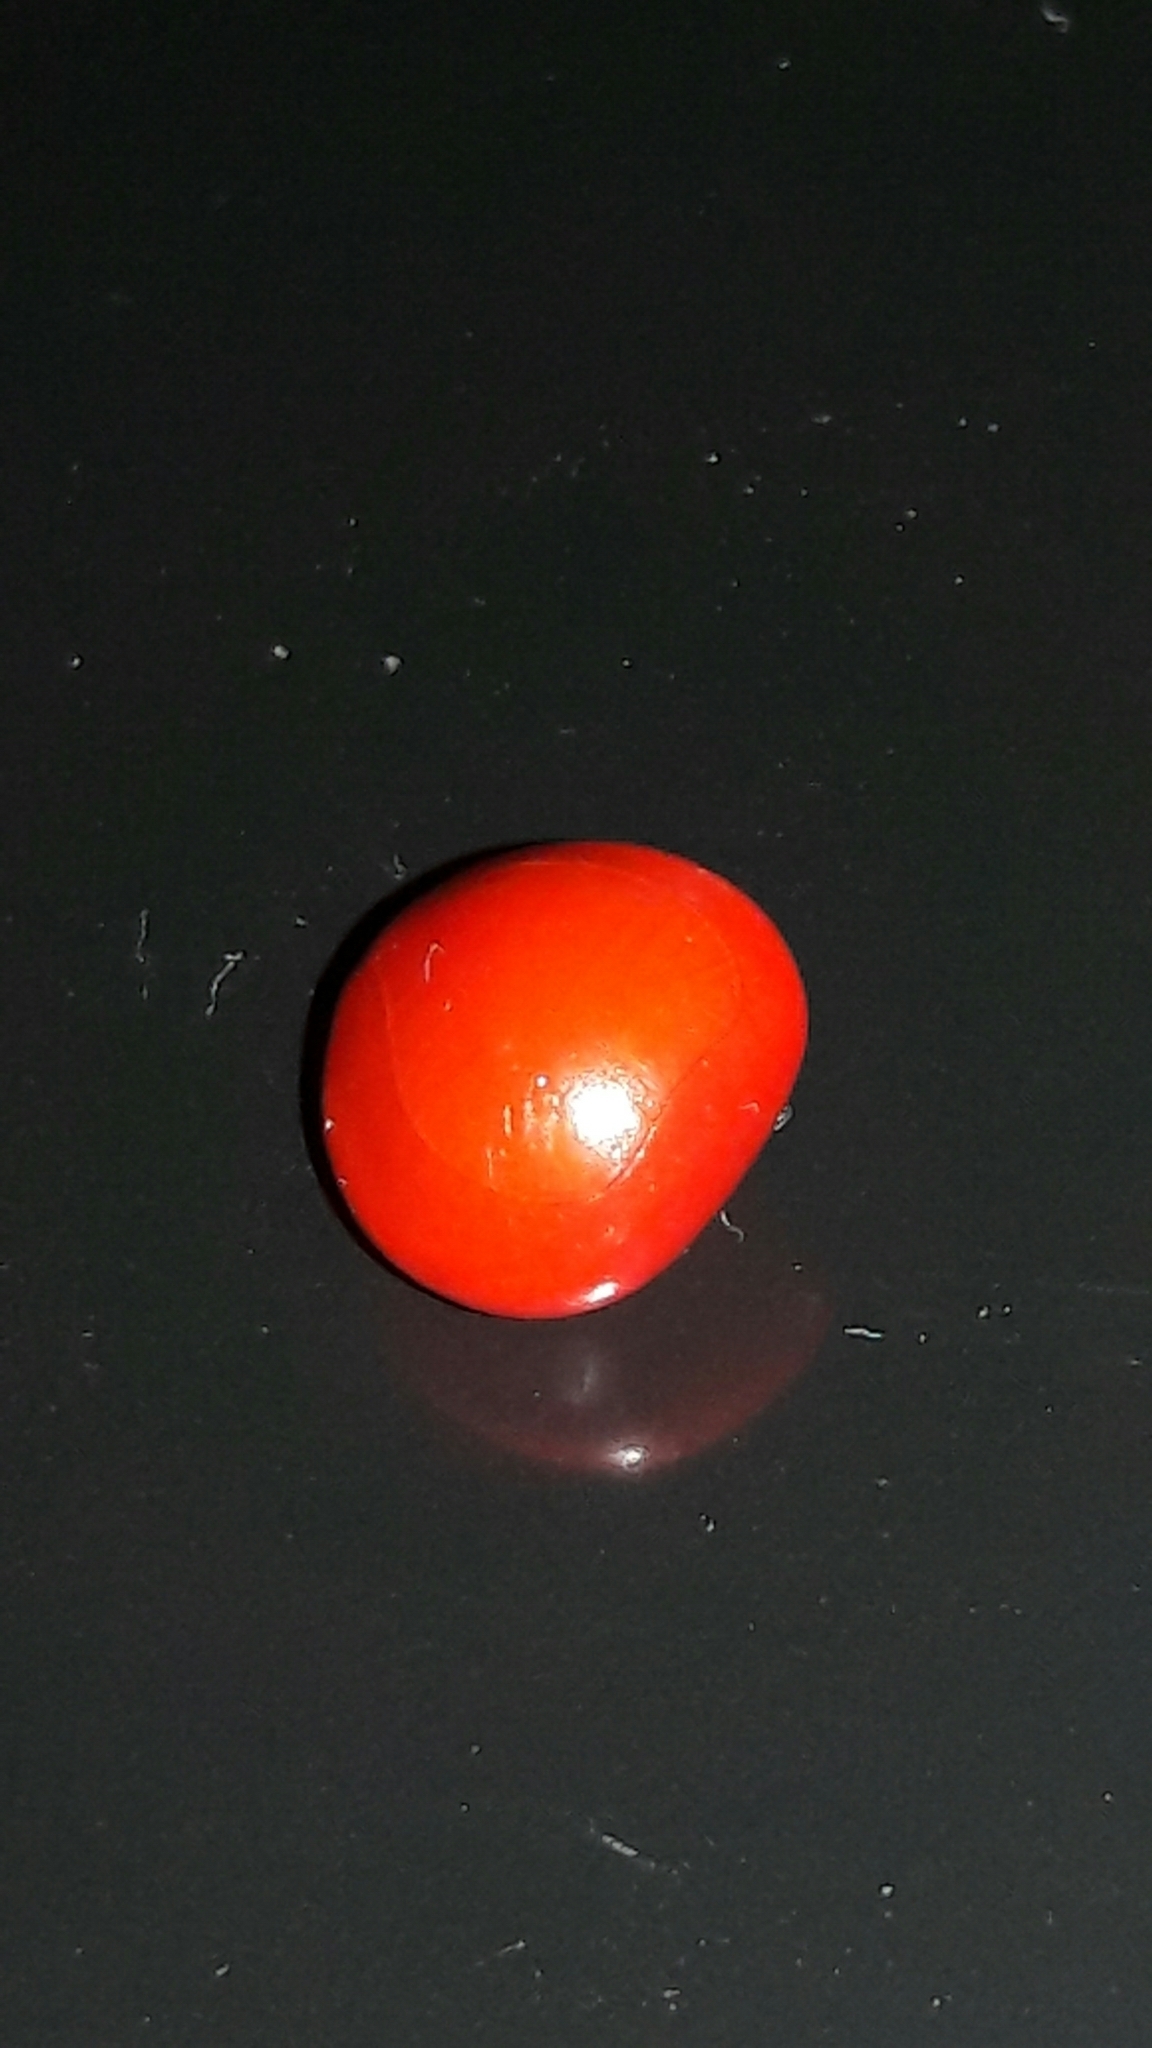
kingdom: Plantae
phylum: Tracheophyta
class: Magnoliopsida
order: Fabales
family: Fabaceae
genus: Adenanthera
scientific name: Adenanthera pavonina
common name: Red beadtree
